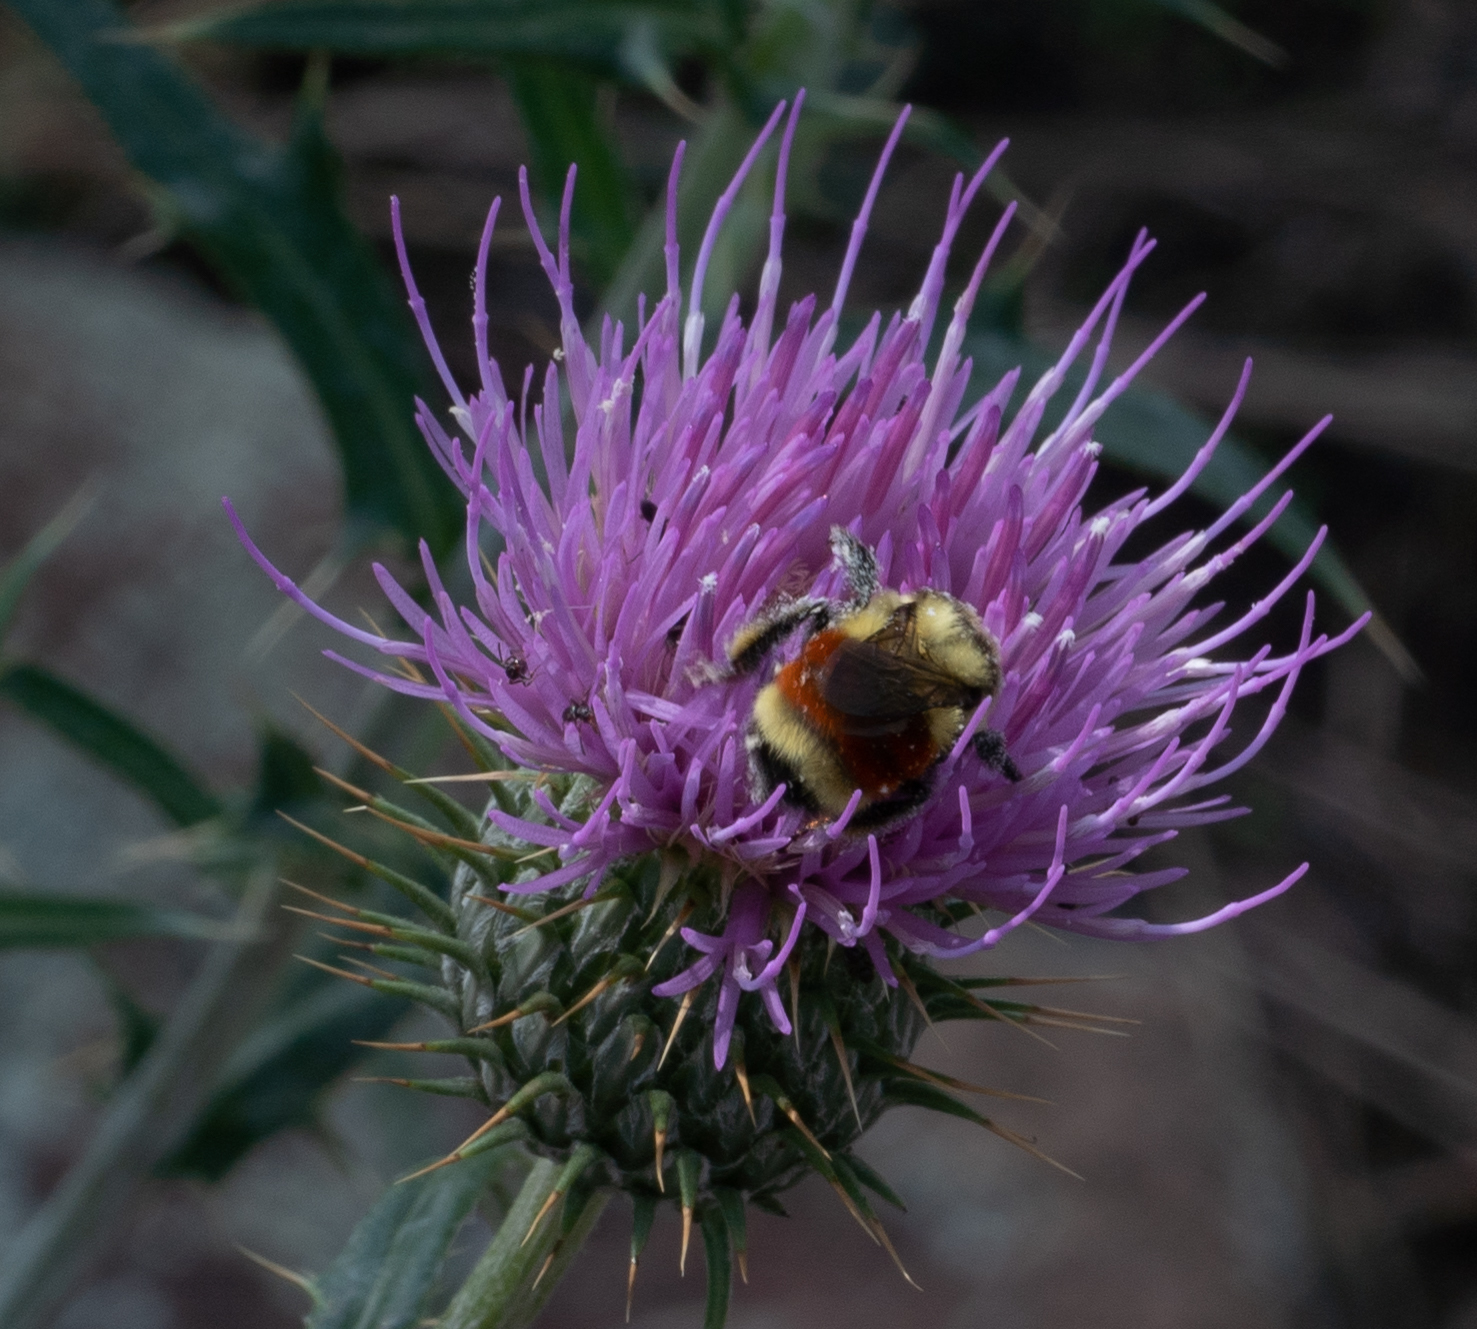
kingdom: Animalia
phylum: Arthropoda
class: Insecta
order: Hymenoptera
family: Apidae
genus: Bombus
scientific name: Bombus huntii
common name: Hunt bumble bee
